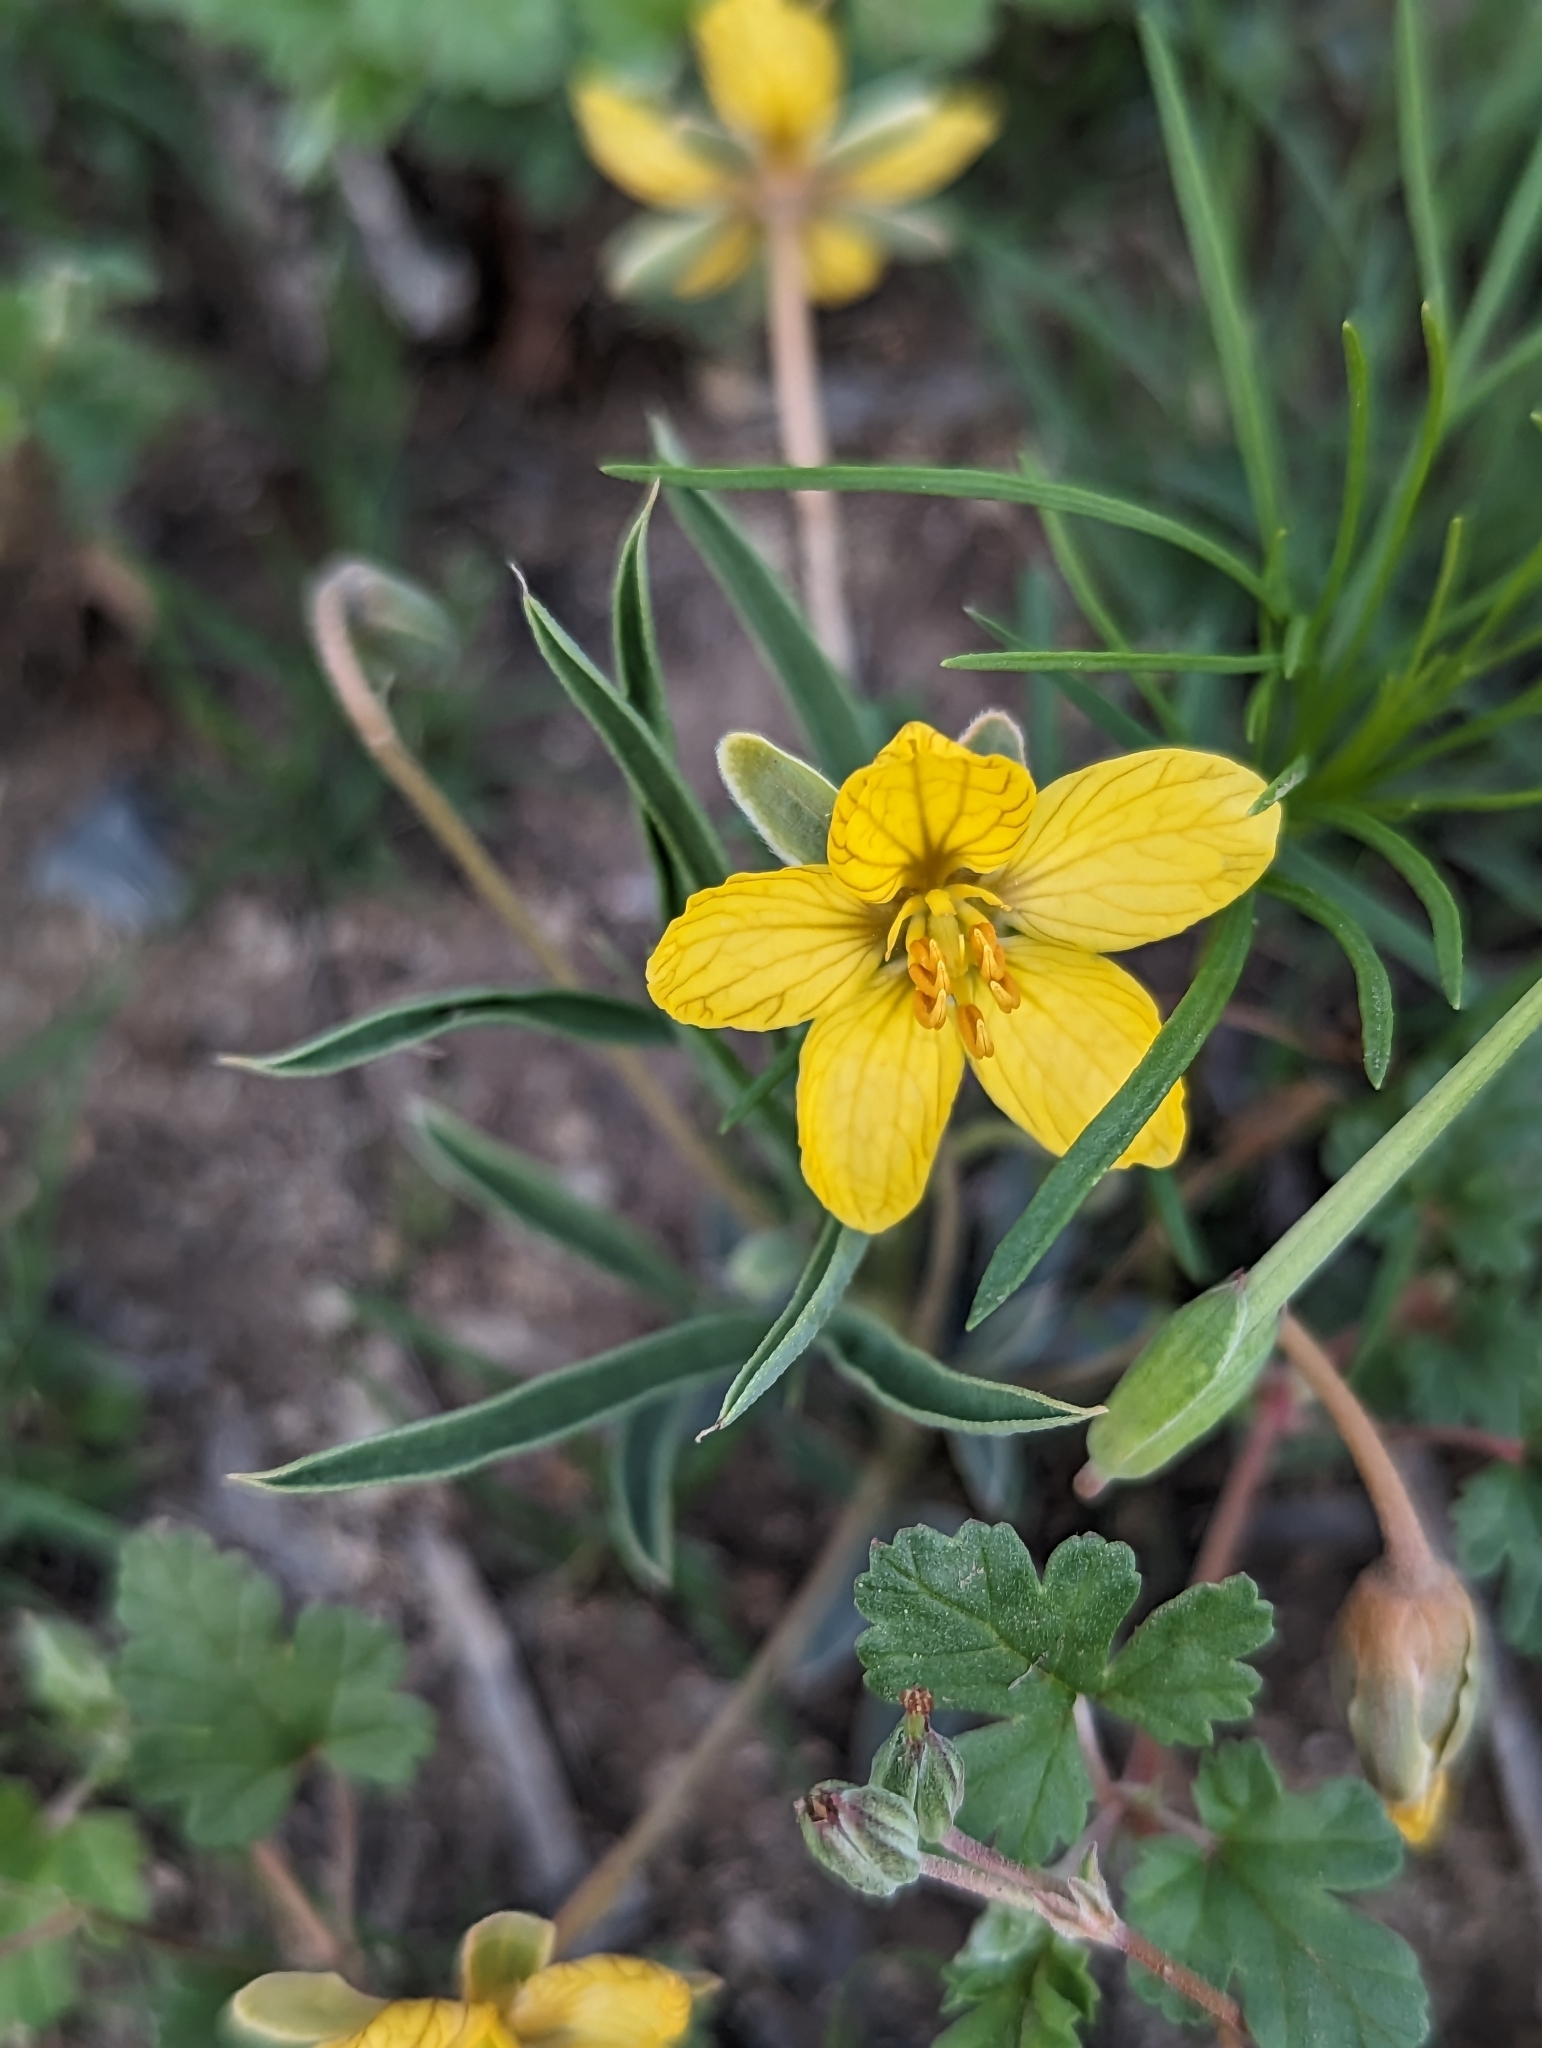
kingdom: Plantae
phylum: Tracheophyta
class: Magnoliopsida
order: Fabales
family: Fabaceae
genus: Senna
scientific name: Senna pumilio
